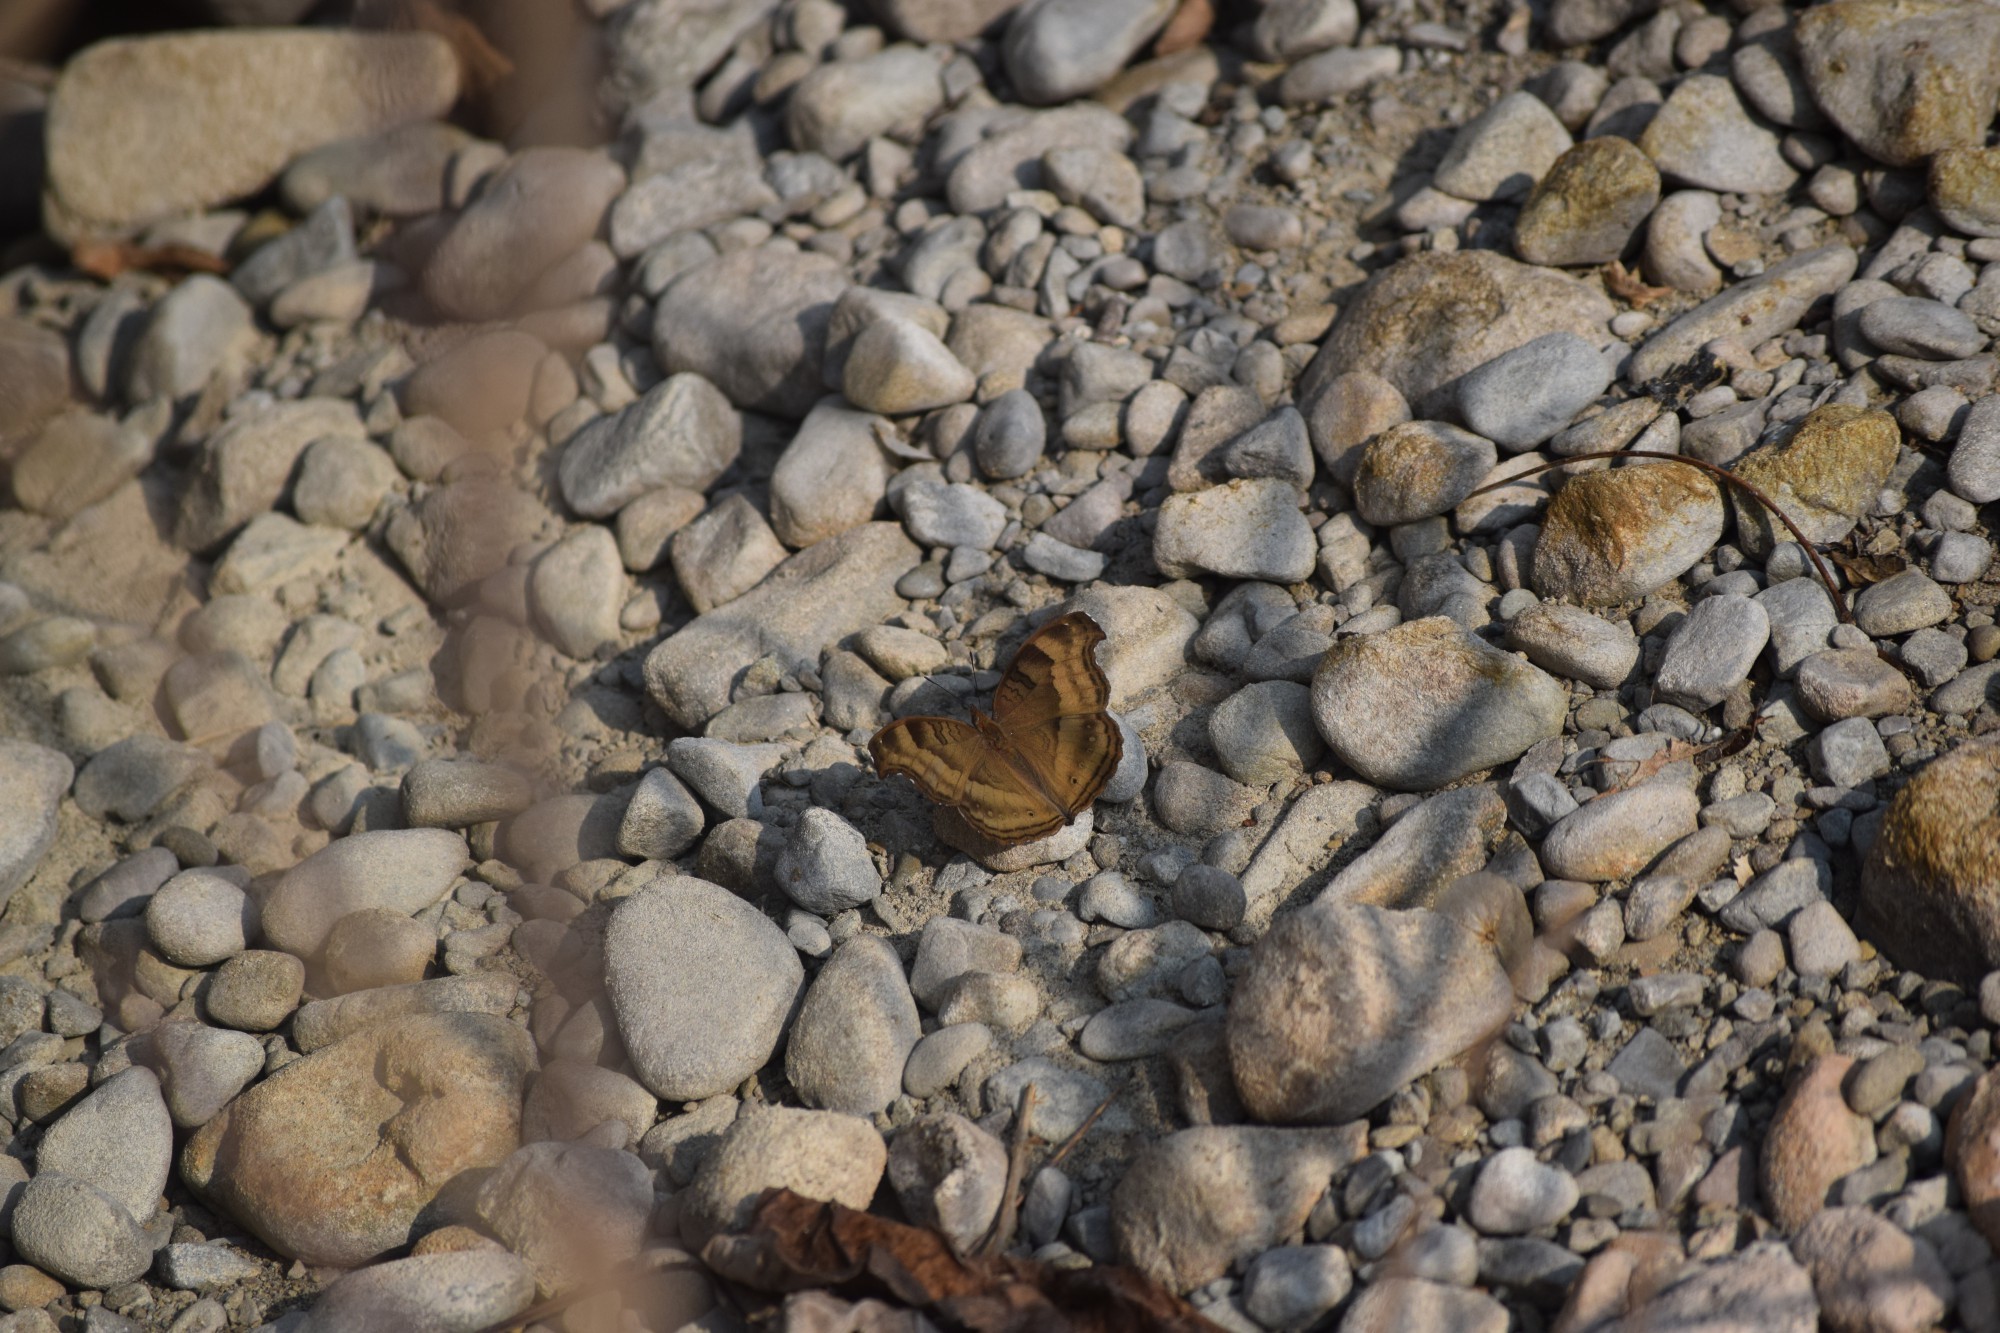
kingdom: Animalia
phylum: Arthropoda
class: Insecta
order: Lepidoptera
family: Nymphalidae
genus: Junonia
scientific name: Junonia iphita
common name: Chocolate pansy
